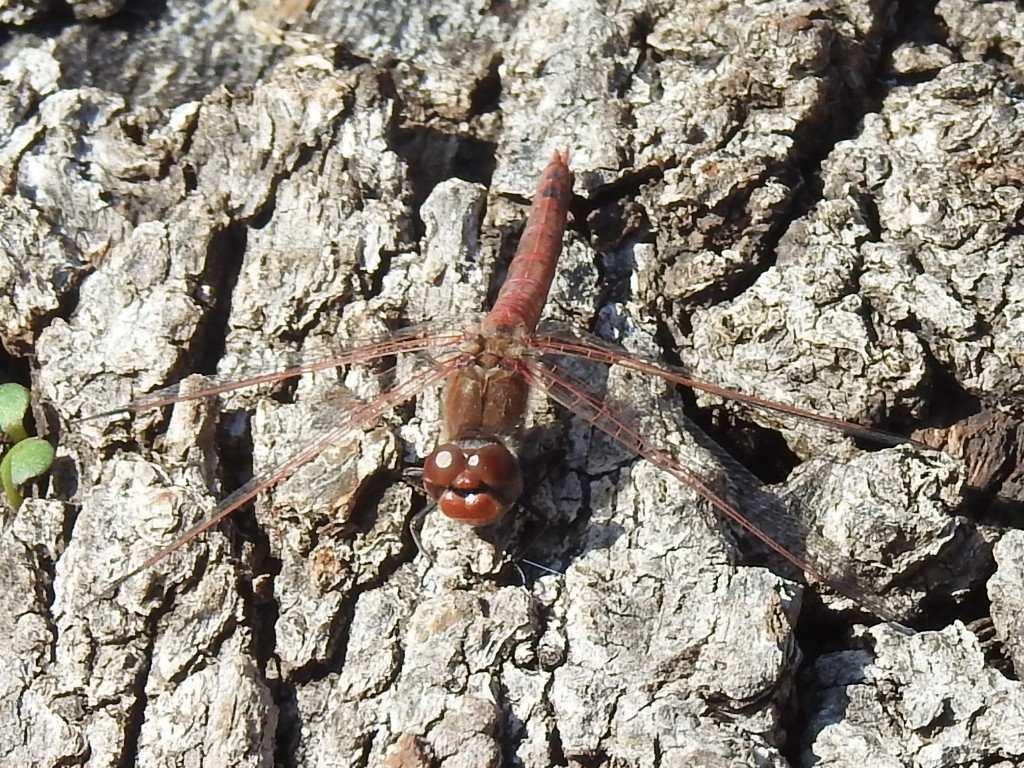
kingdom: Animalia
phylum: Arthropoda
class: Insecta
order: Odonata
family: Libellulidae
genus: Sympetrum
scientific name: Sympetrum corruptum
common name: Variegated meadowhawk
